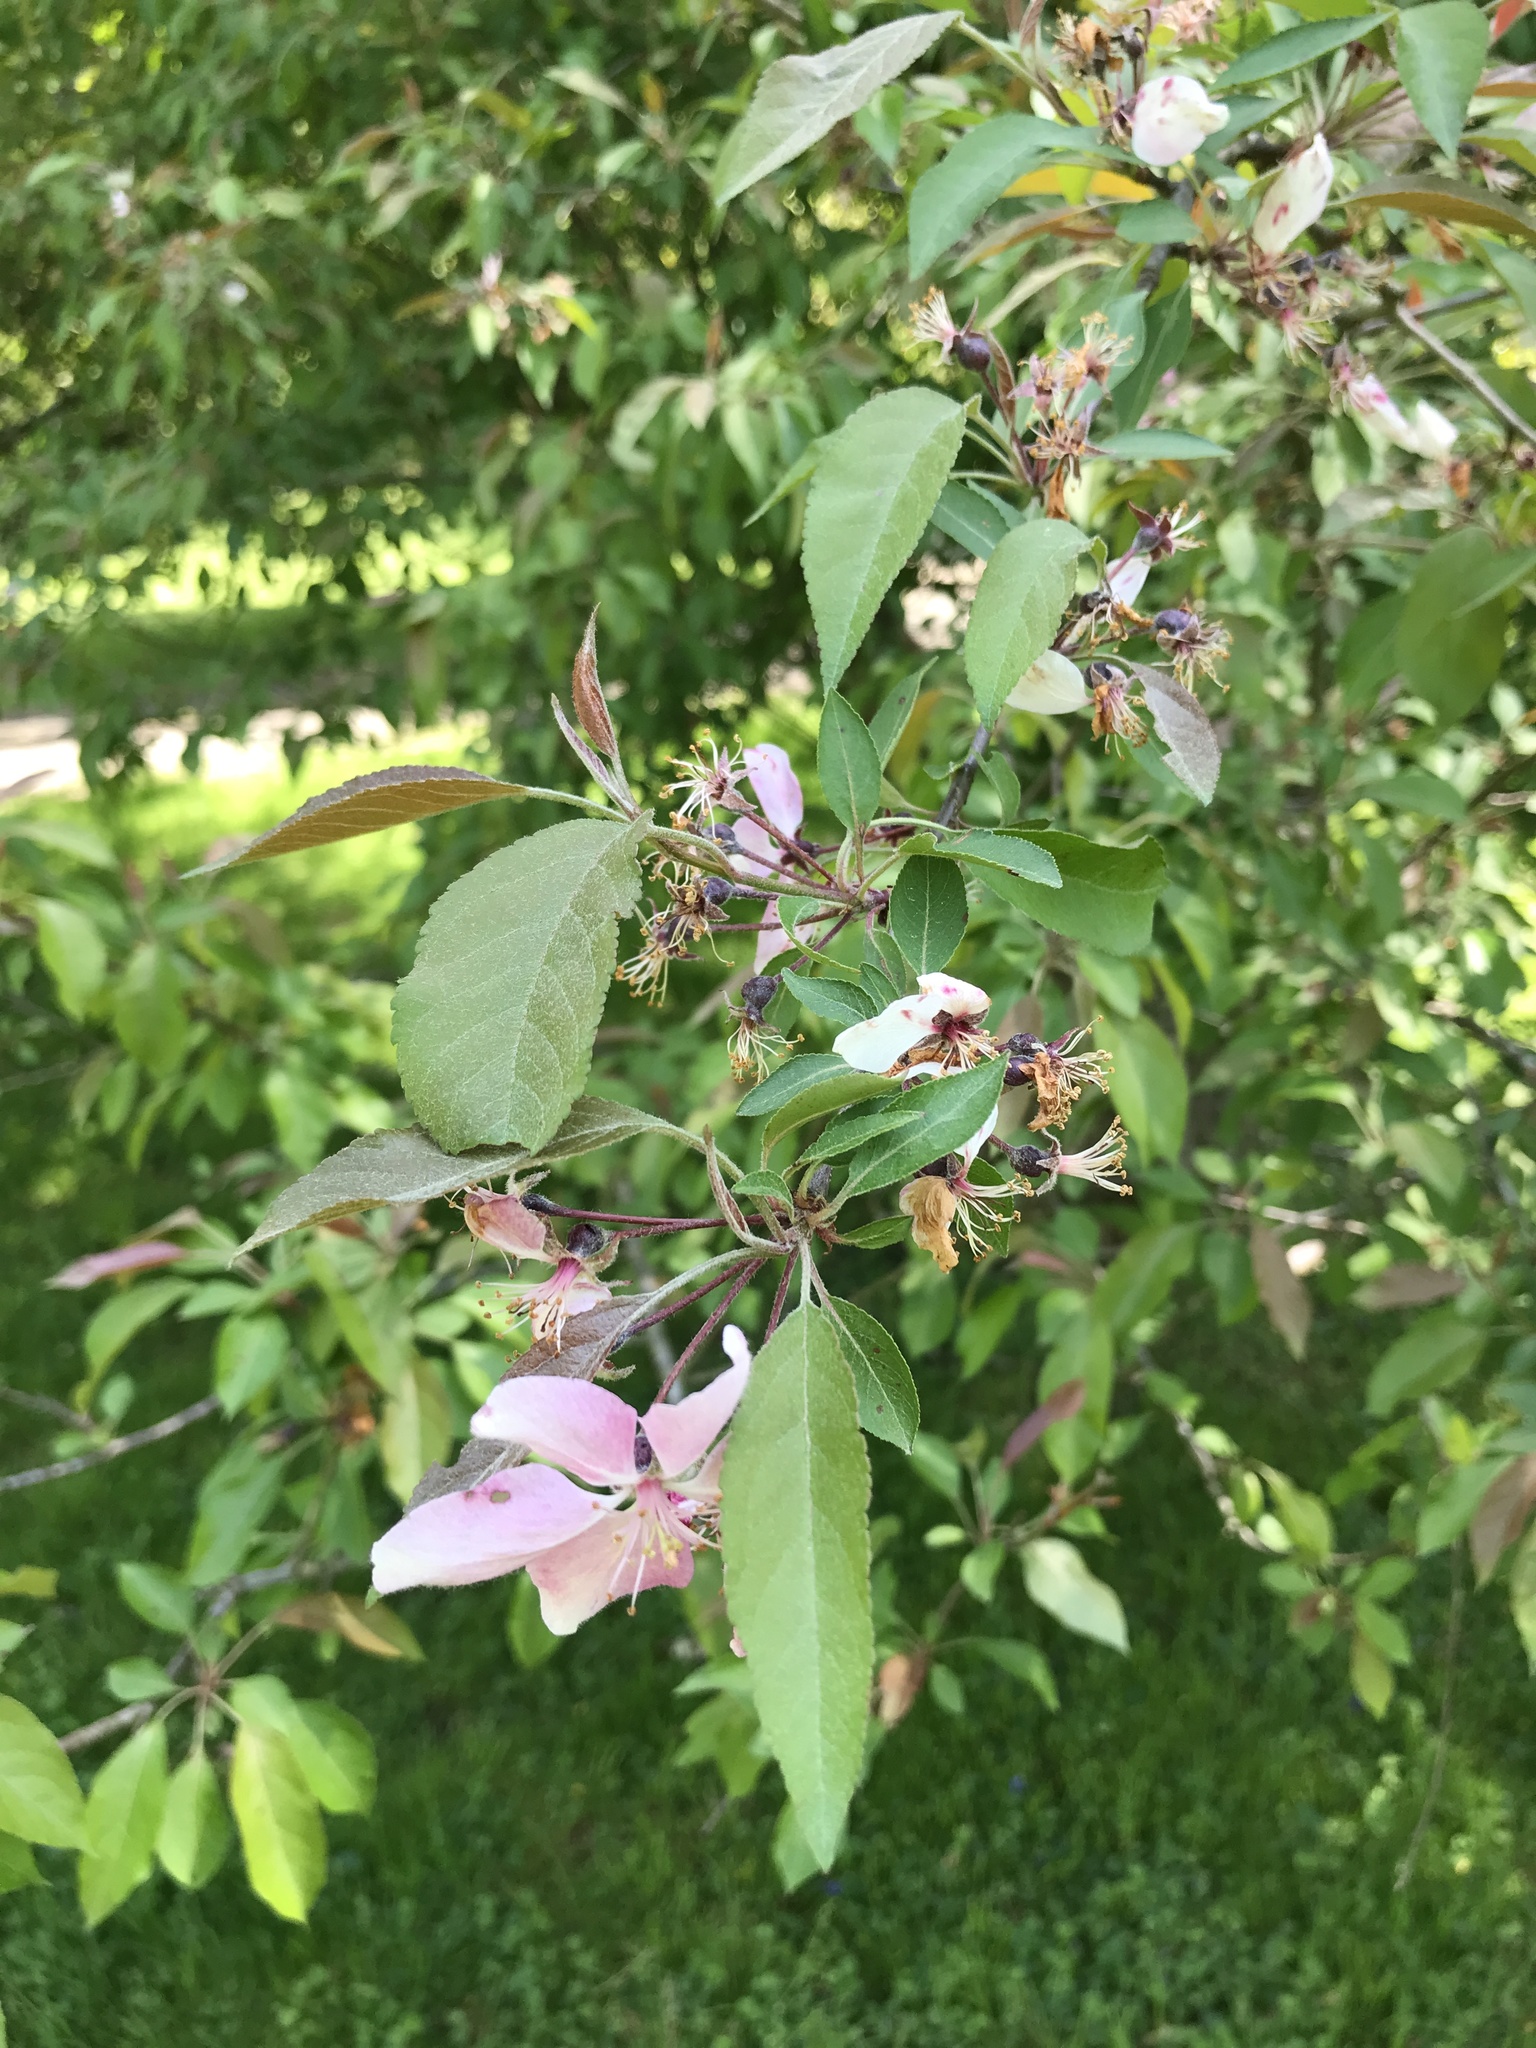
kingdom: Plantae
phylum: Tracheophyta
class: Magnoliopsida
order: Rosales
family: Rosaceae
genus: Malus
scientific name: Malus coronaria
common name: Sweet crab apple
